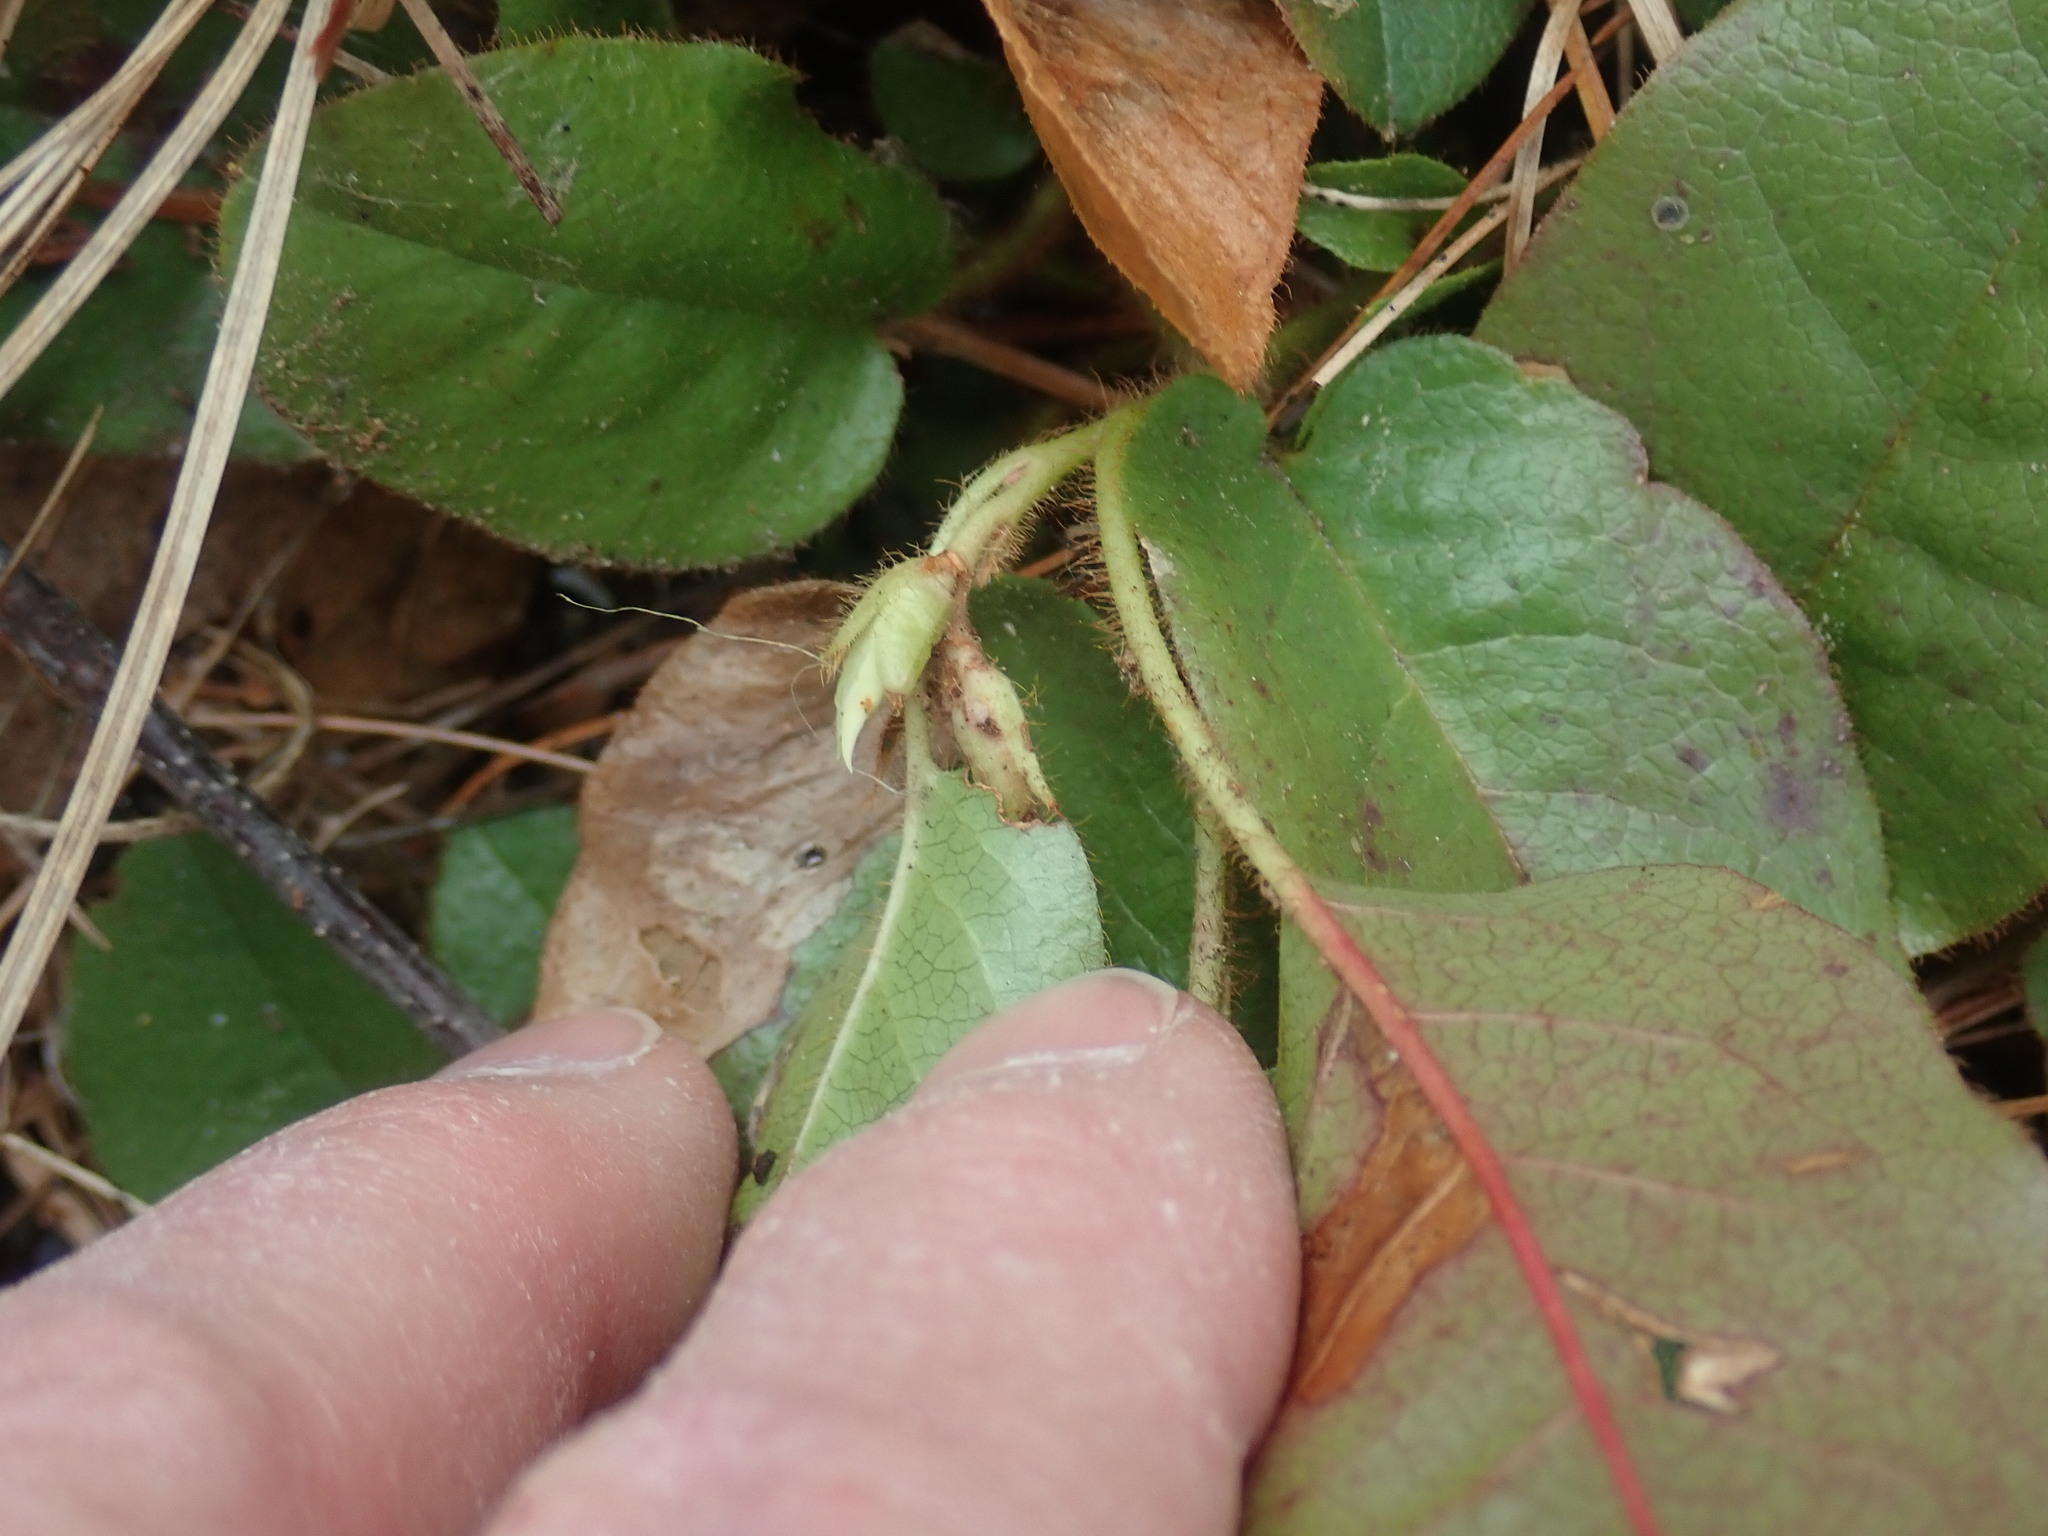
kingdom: Plantae
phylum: Tracheophyta
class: Magnoliopsida
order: Ericales
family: Ericaceae
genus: Epigaea
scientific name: Epigaea repens
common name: Gravelroot
